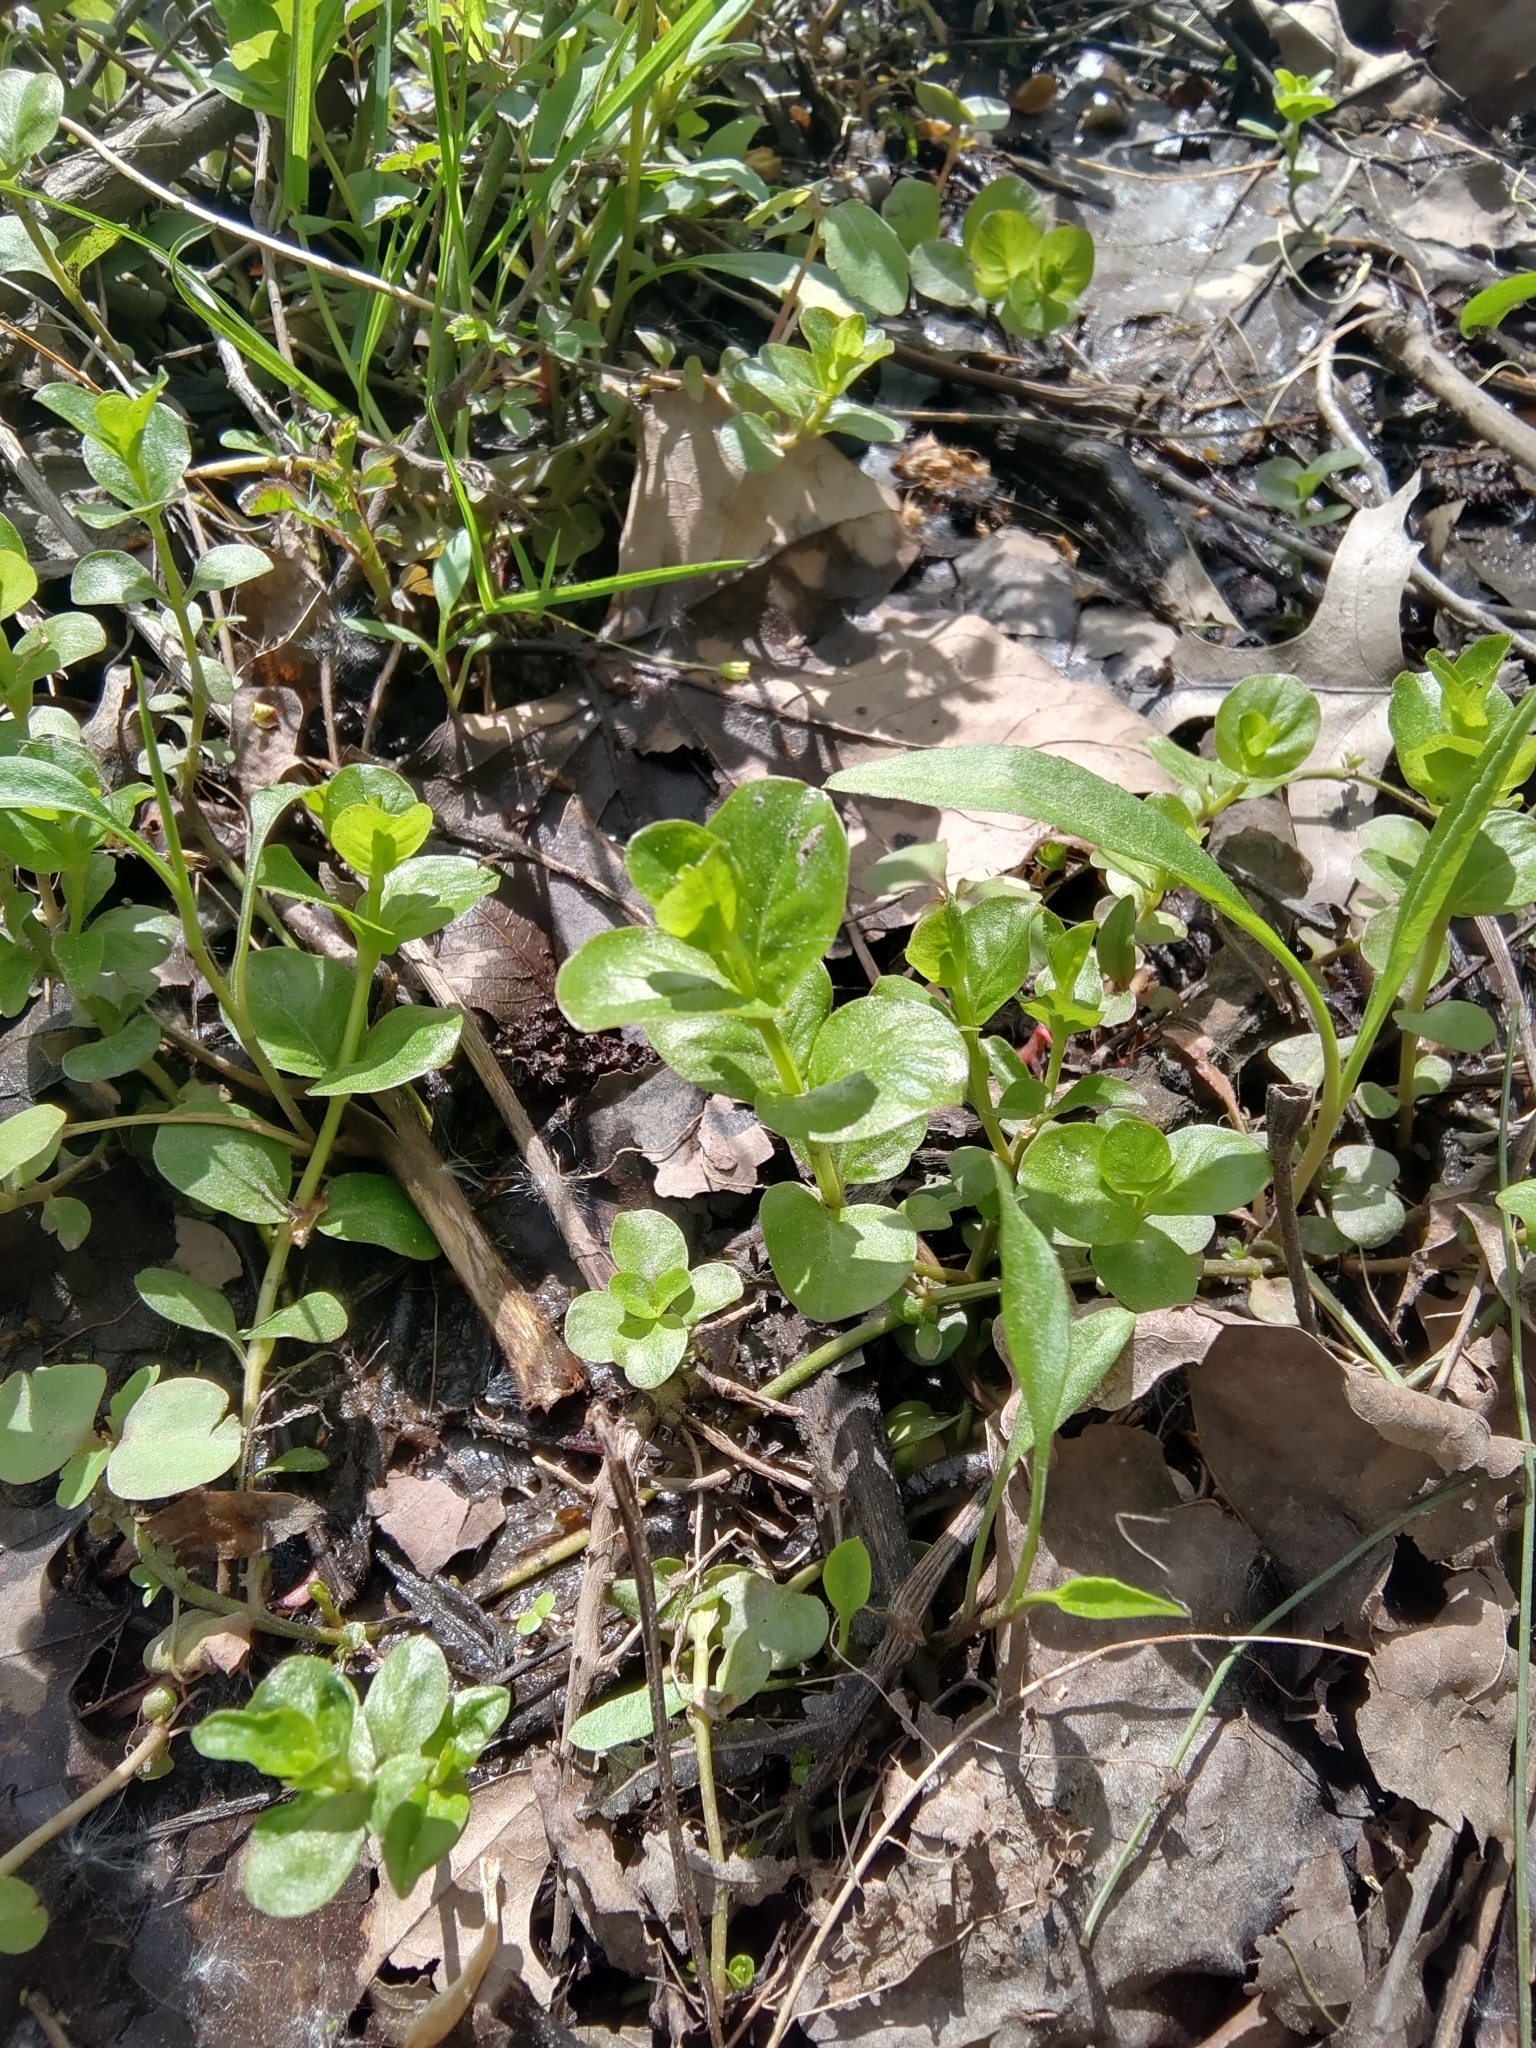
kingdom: Plantae
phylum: Tracheophyta
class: Magnoliopsida
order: Ericales
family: Primulaceae
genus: Lysimachia
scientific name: Lysimachia nummularia
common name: Moneywort
